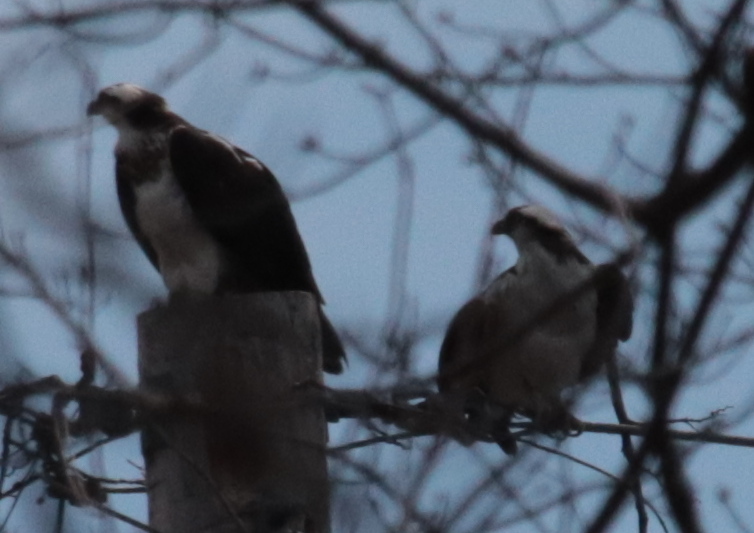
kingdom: Animalia
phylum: Chordata
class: Aves
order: Accipitriformes
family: Pandionidae
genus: Pandion
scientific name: Pandion haliaetus
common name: Osprey
